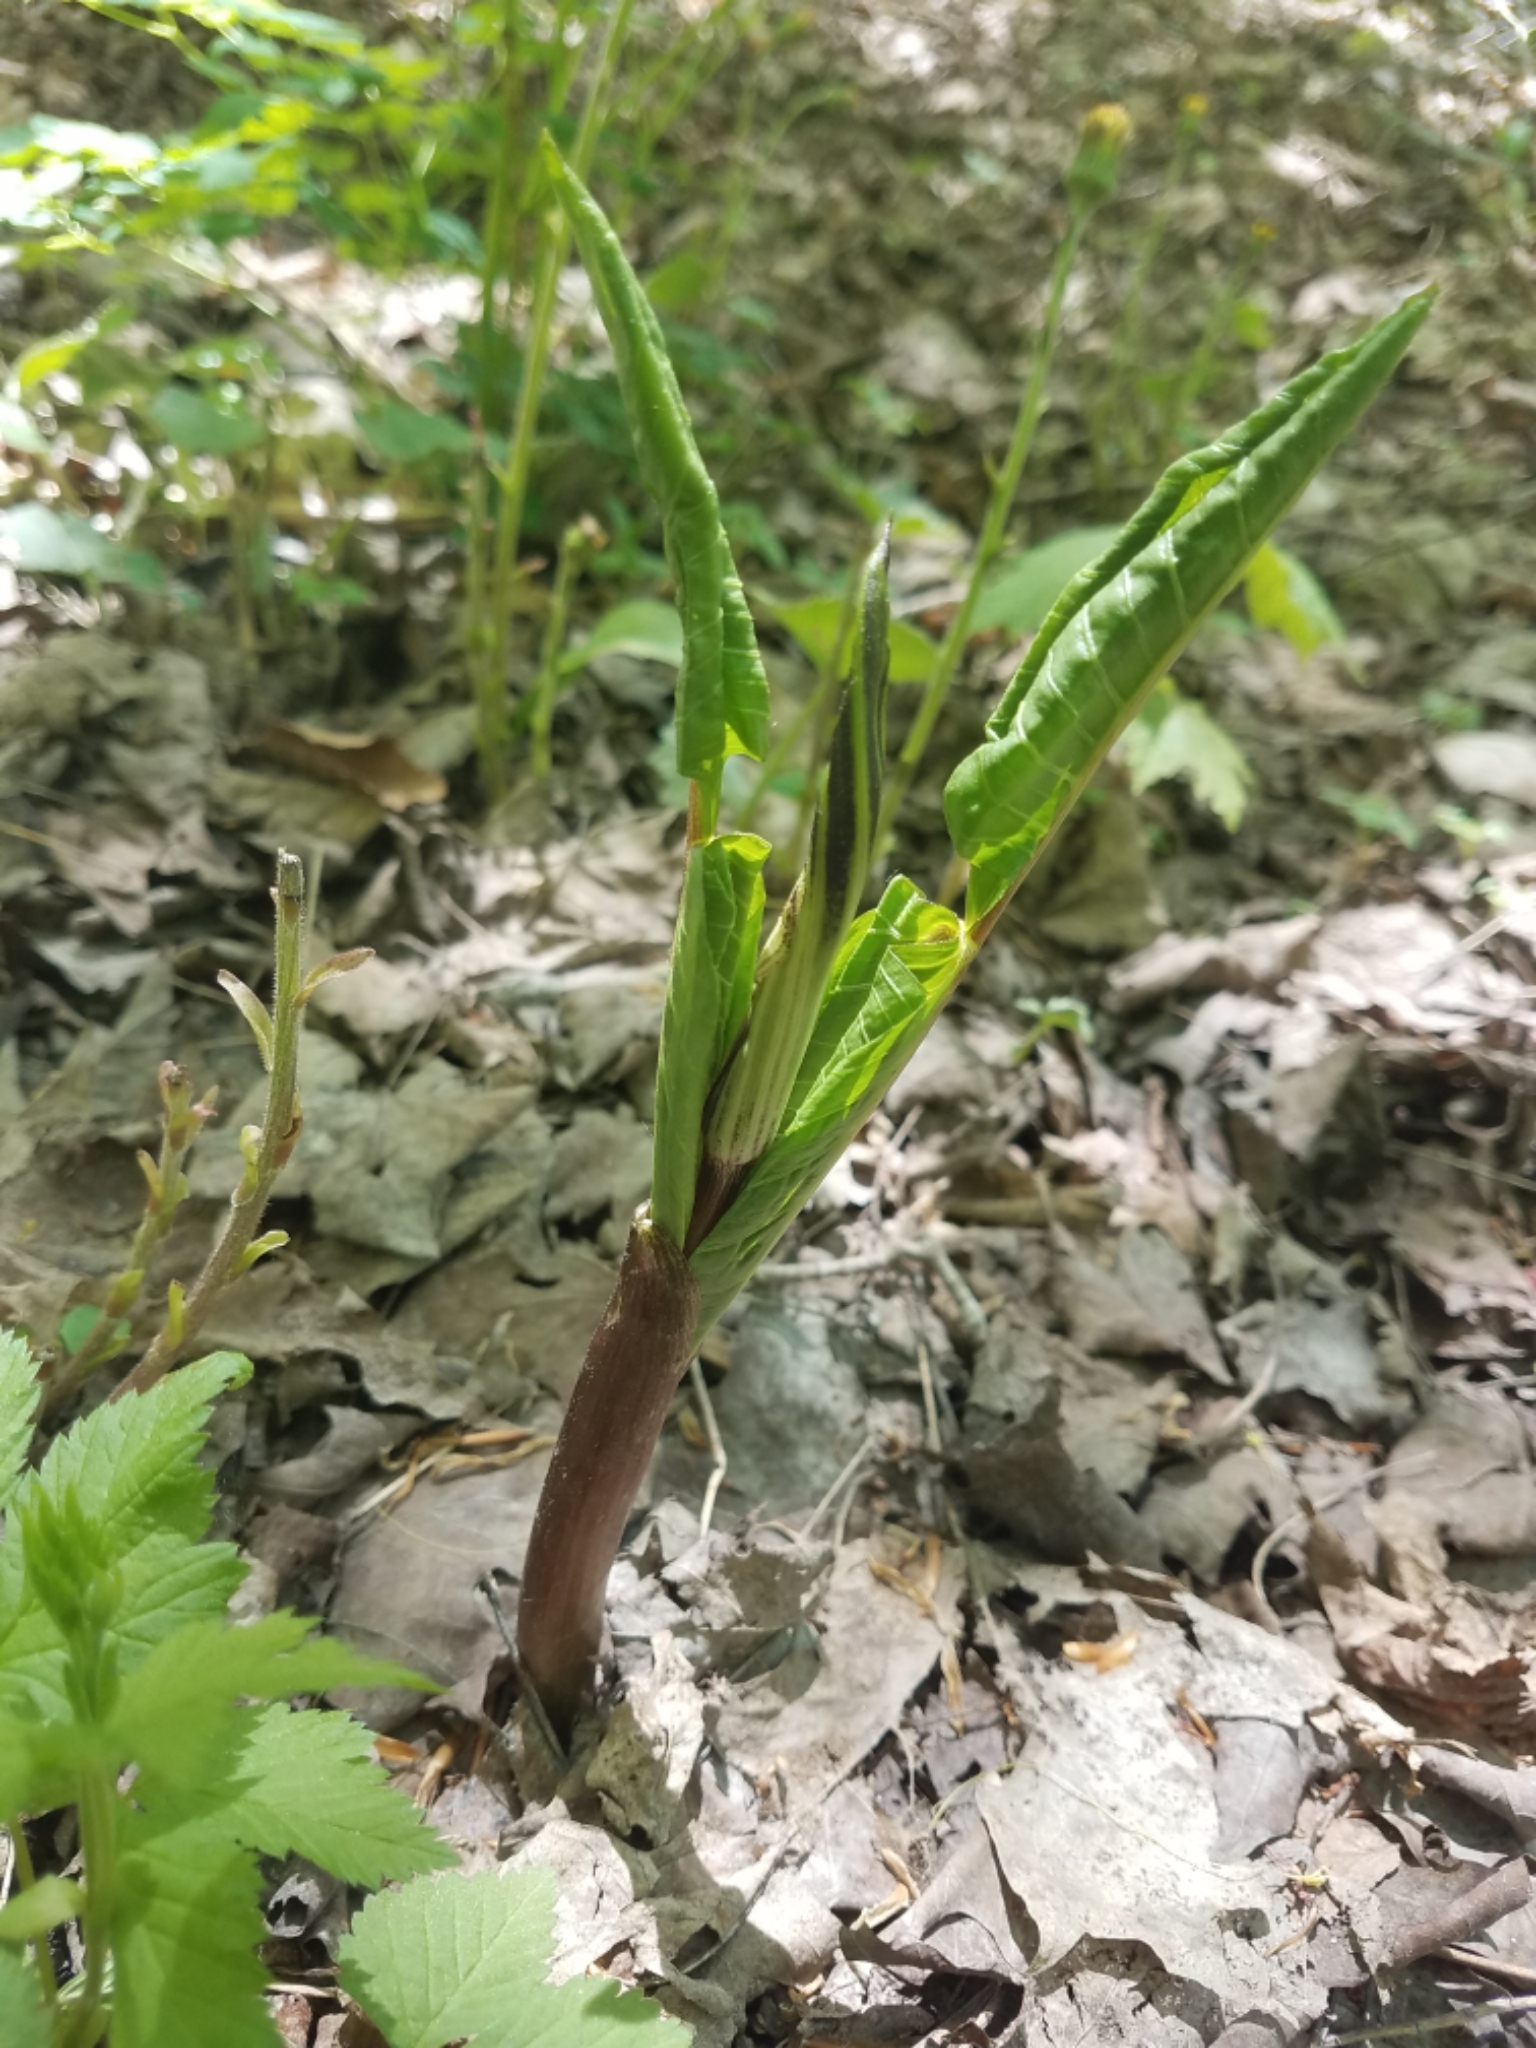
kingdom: Plantae
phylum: Tracheophyta
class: Liliopsida
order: Alismatales
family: Araceae
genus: Arisaema
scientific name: Arisaema triphyllum
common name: Jack-in-the-pulpit
